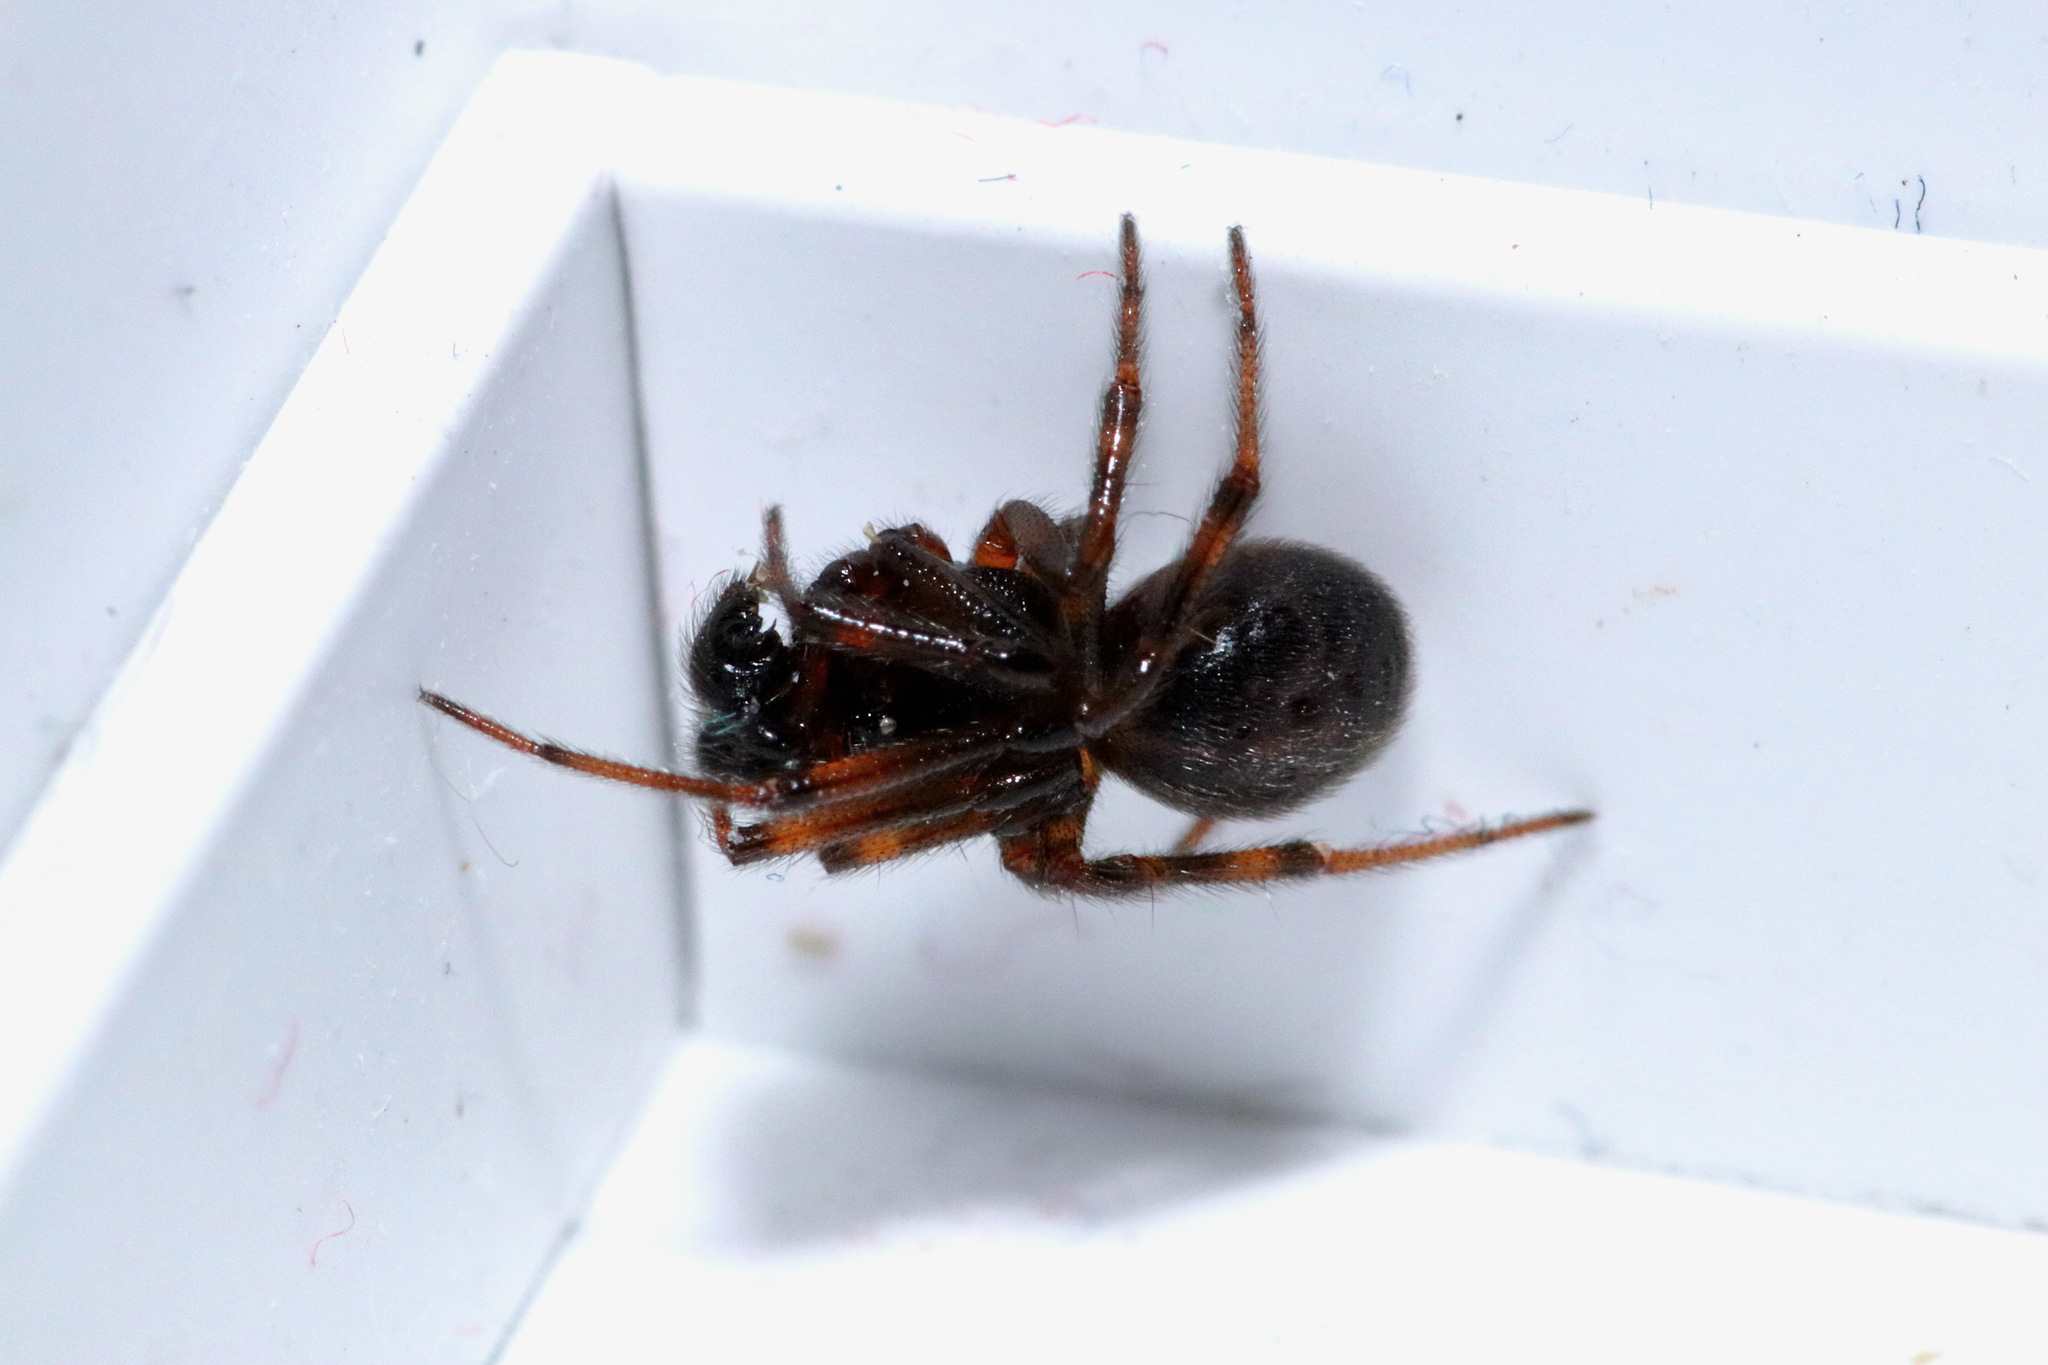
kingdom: Animalia
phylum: Arthropoda
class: Arachnida
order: Araneae
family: Theridiidae
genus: Steatoda
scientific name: Steatoda borealis
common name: Boreal combfoot
